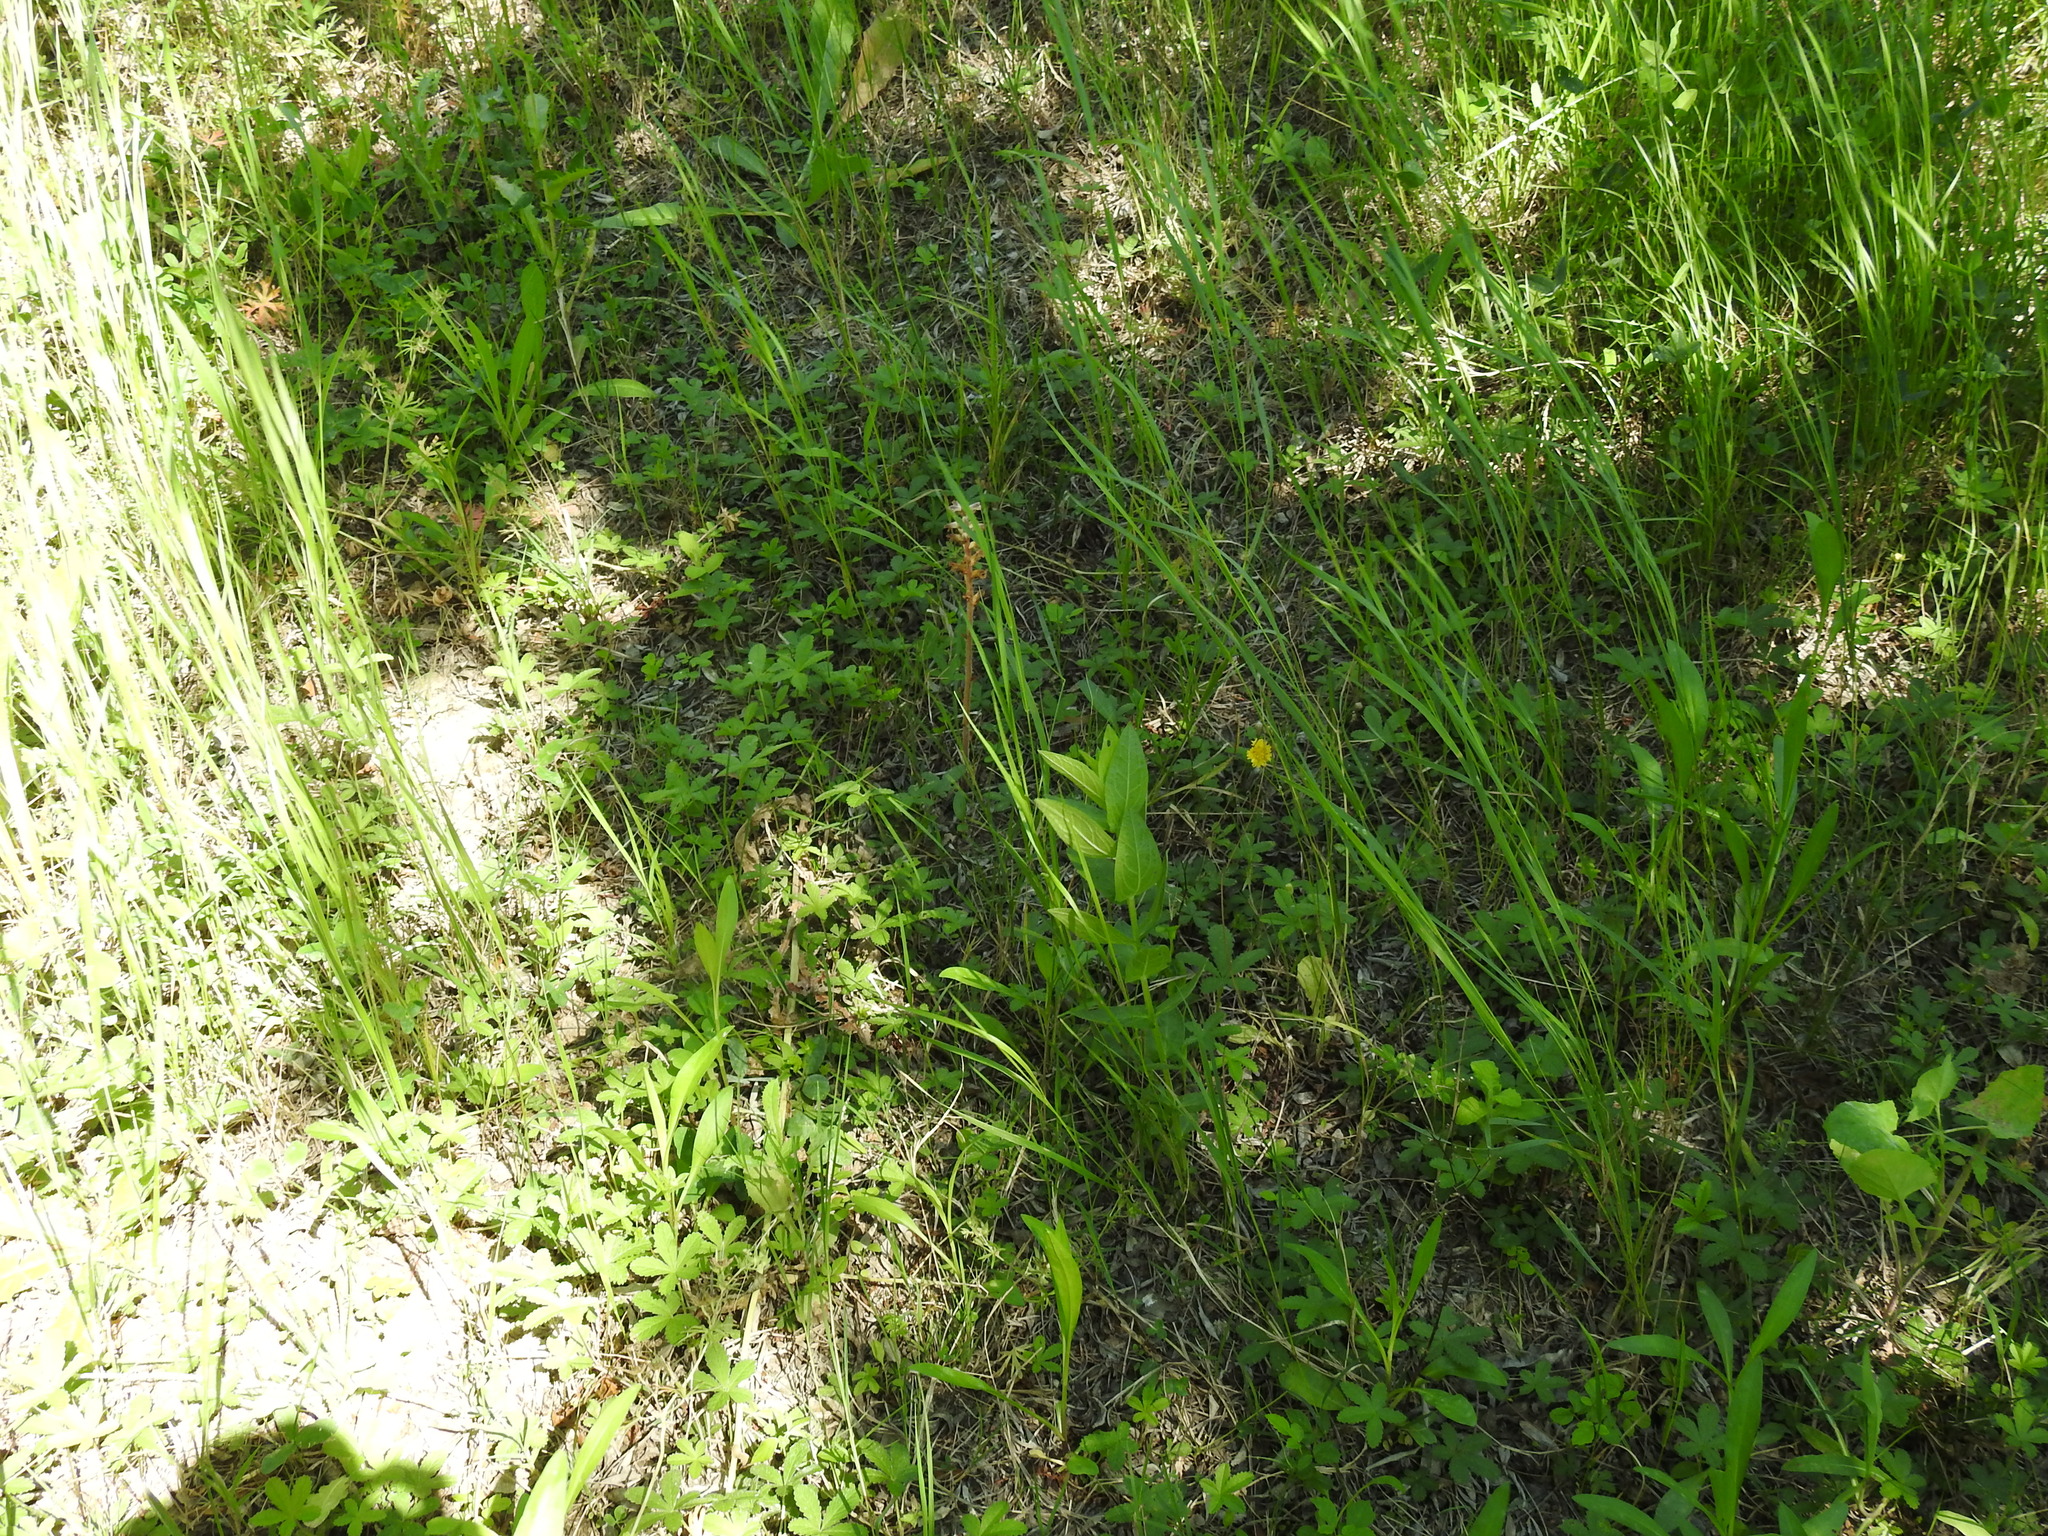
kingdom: Plantae
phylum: Tracheophyta
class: Magnoliopsida
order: Lamiales
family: Orobanchaceae
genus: Orobanche
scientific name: Orobanche minor
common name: Common broomrape
